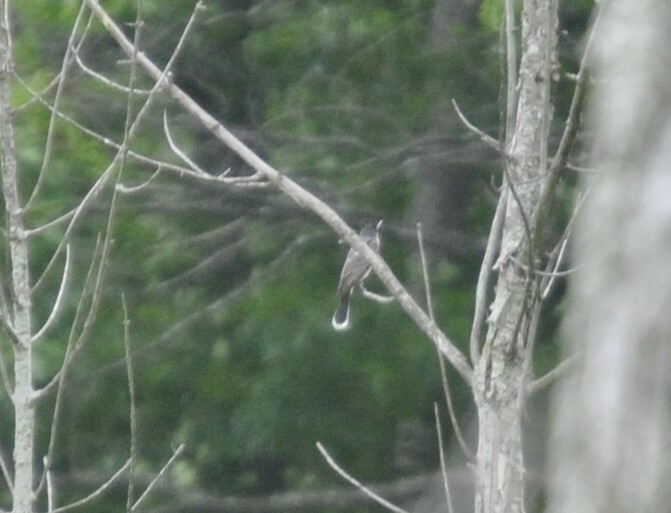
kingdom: Animalia
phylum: Chordata
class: Aves
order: Passeriformes
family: Tyrannidae
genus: Tyrannus
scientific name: Tyrannus tyrannus
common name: Eastern kingbird
